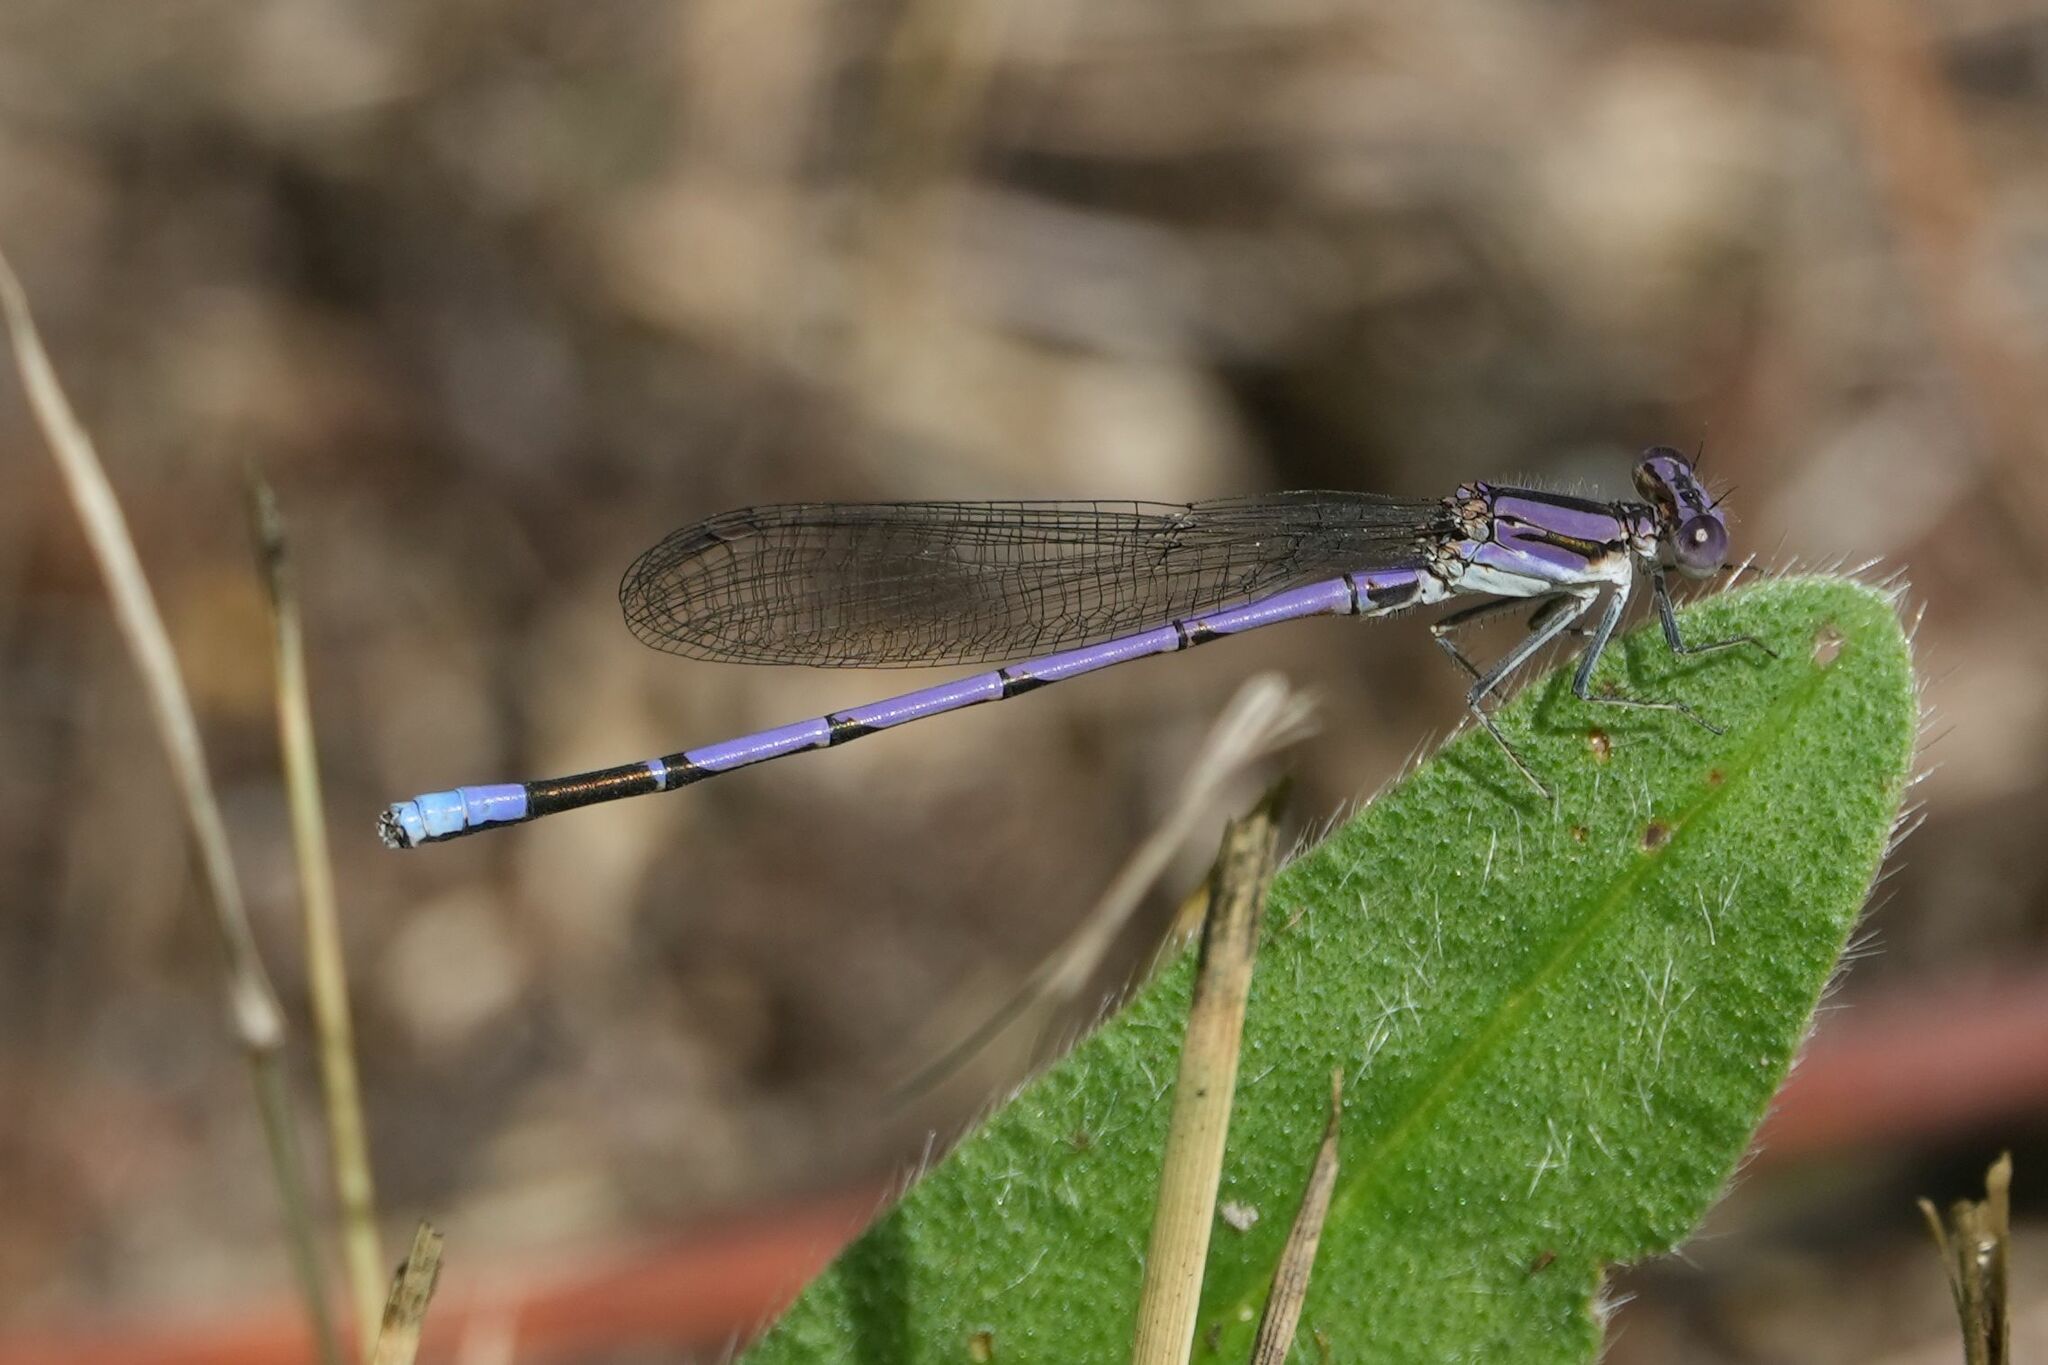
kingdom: Animalia
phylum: Arthropoda
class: Insecta
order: Odonata
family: Coenagrionidae
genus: Argia
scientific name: Argia fumipennis
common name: Variable dancer
